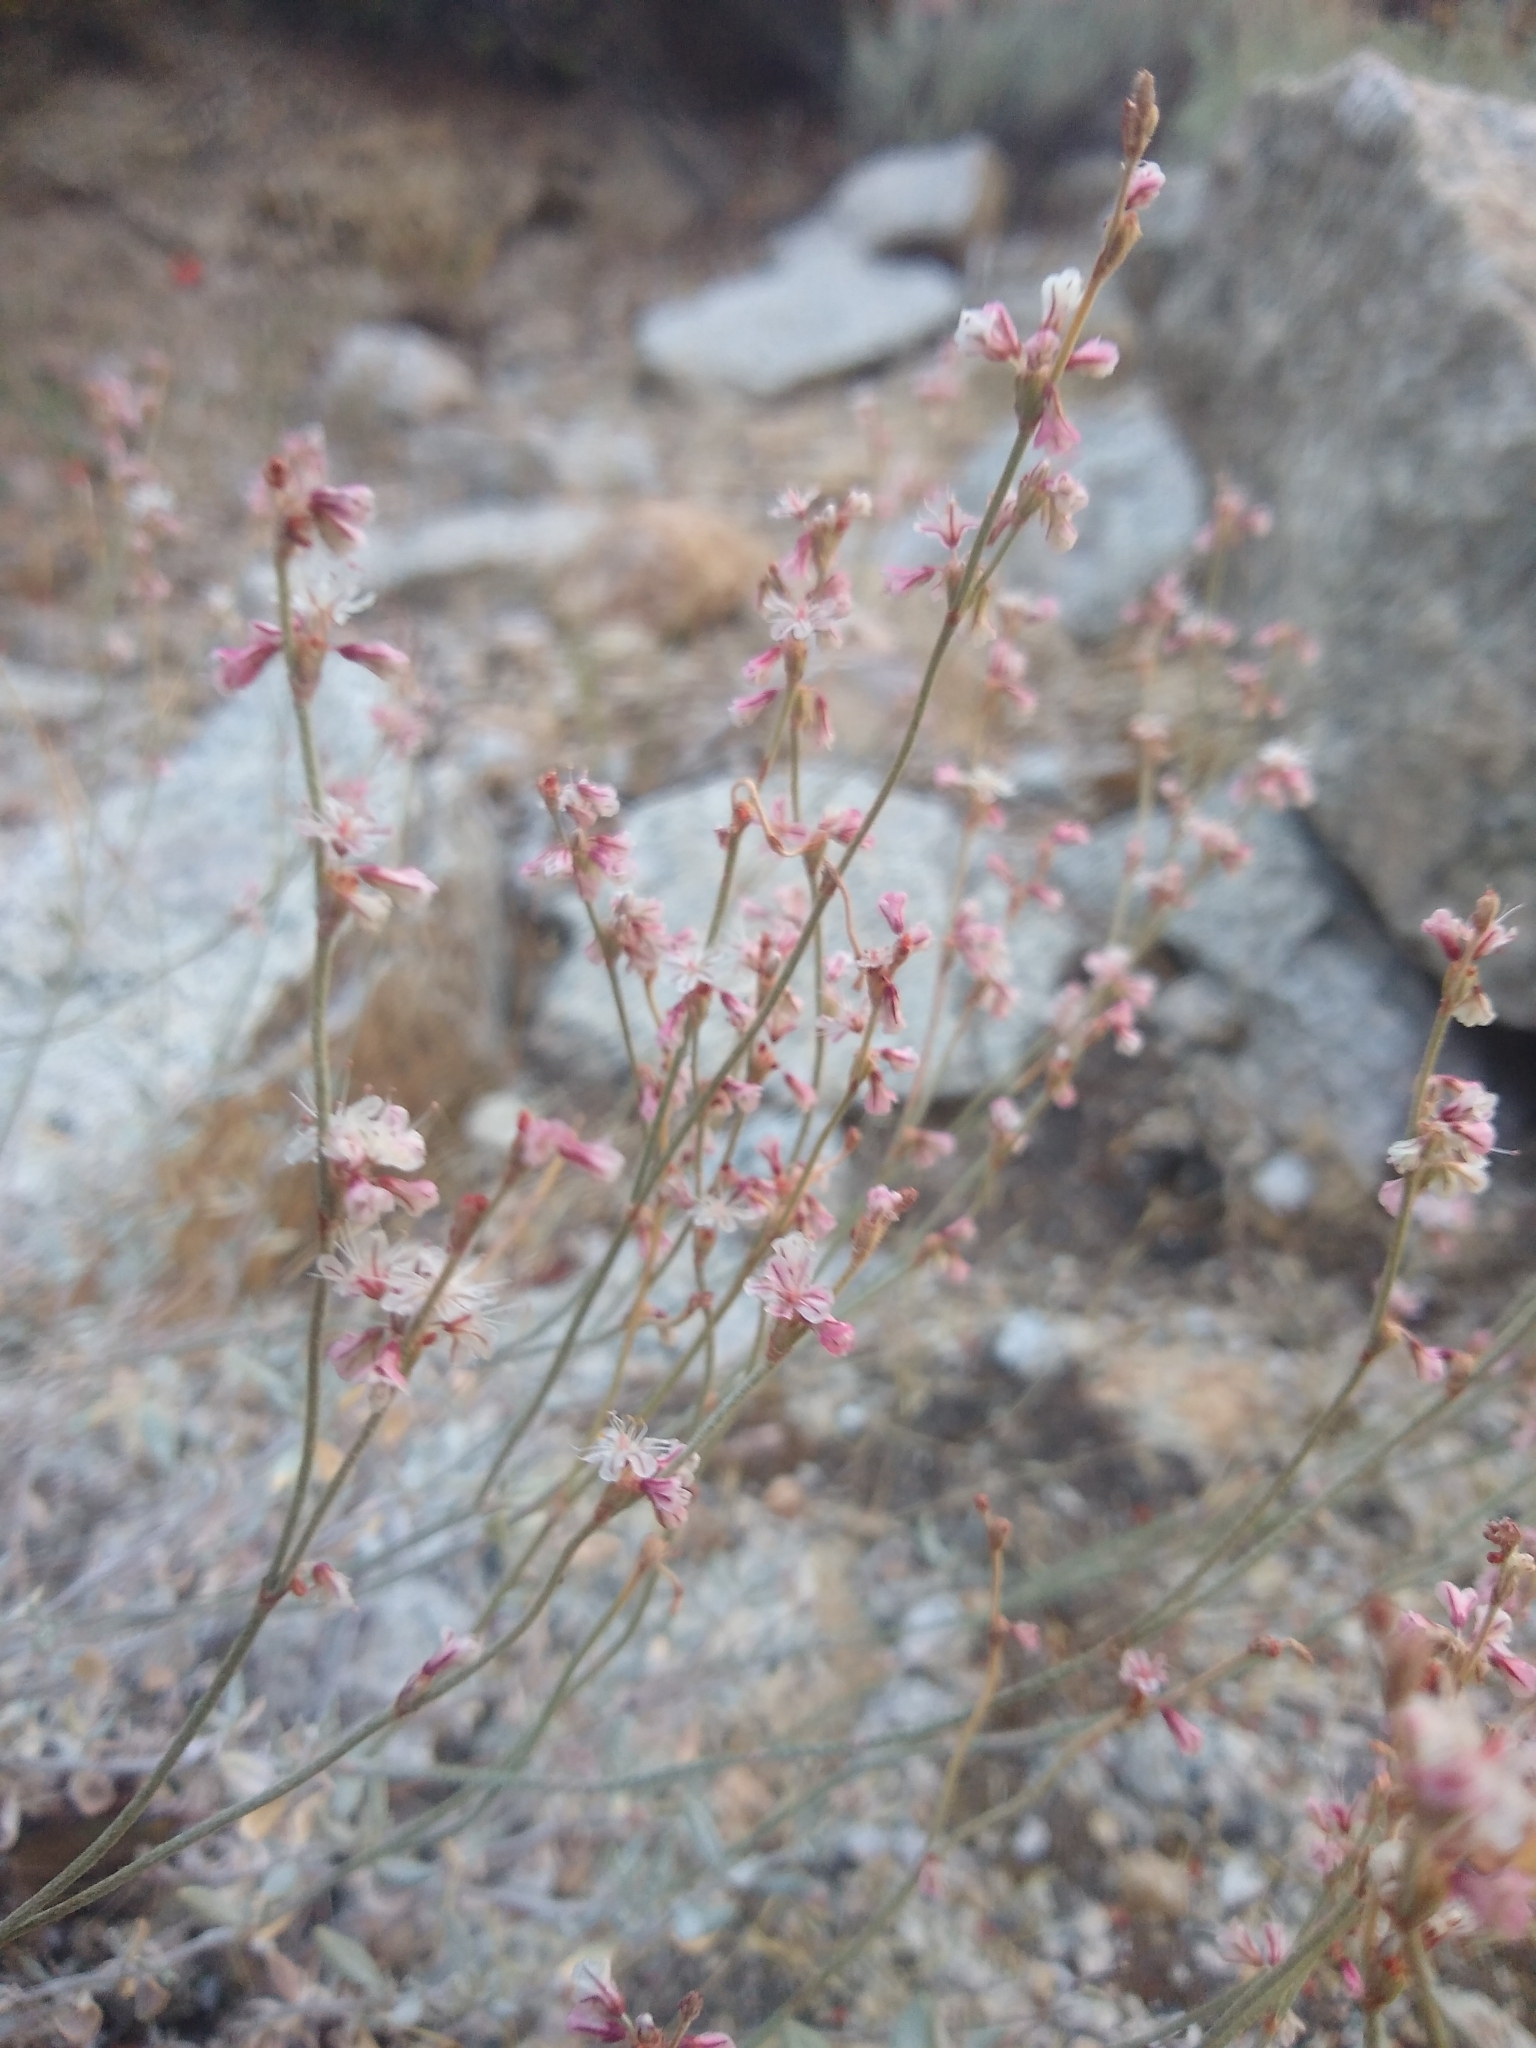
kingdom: Plantae
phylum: Tracheophyta
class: Magnoliopsida
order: Caryophyllales
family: Polygonaceae
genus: Eriogonum
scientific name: Eriogonum wrightii
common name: Bastard-sage
